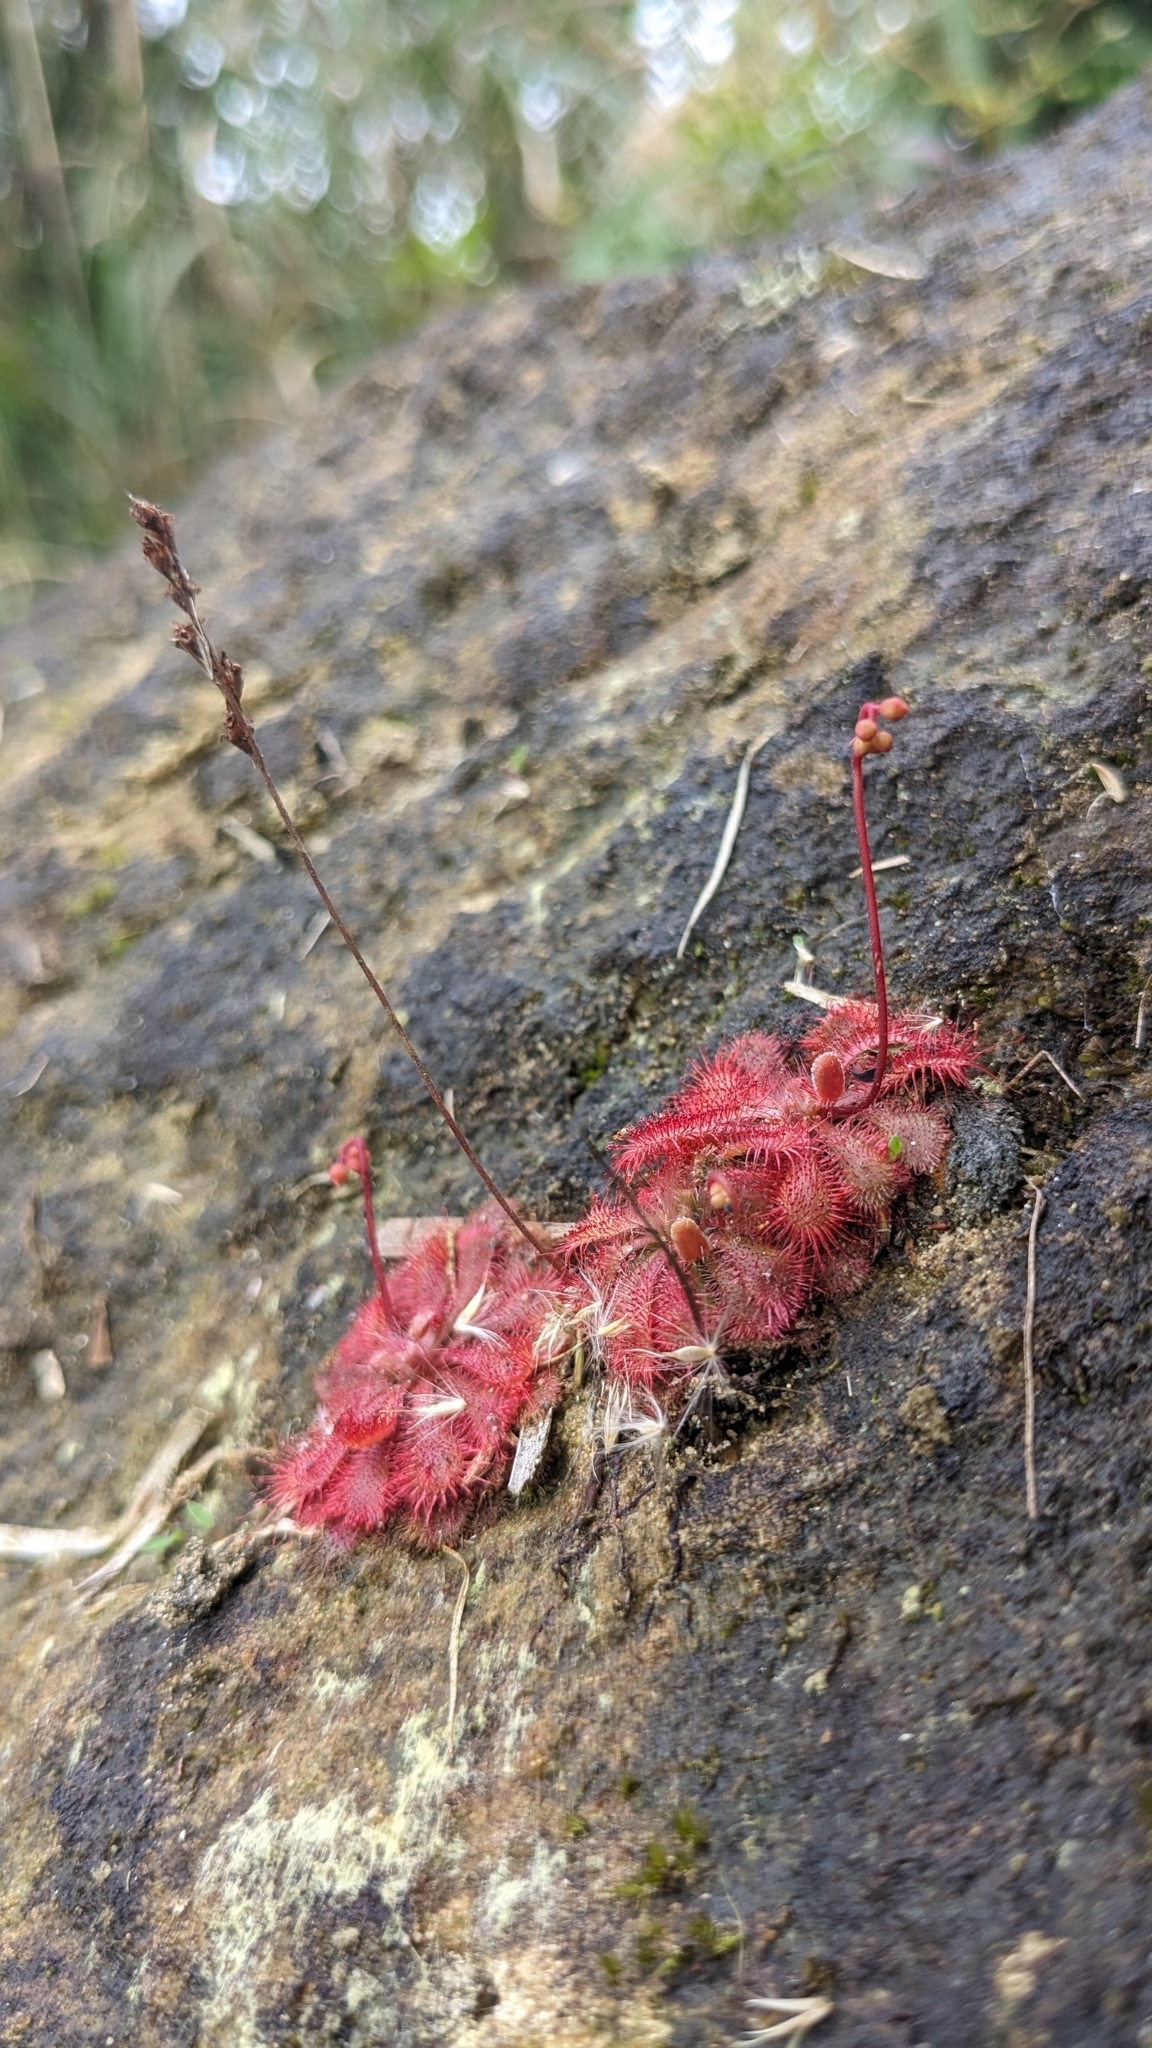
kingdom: Plantae
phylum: Tracheophyta
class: Magnoliopsida
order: Caryophyllales
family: Droseraceae
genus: Drosera
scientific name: Drosera spatulata
